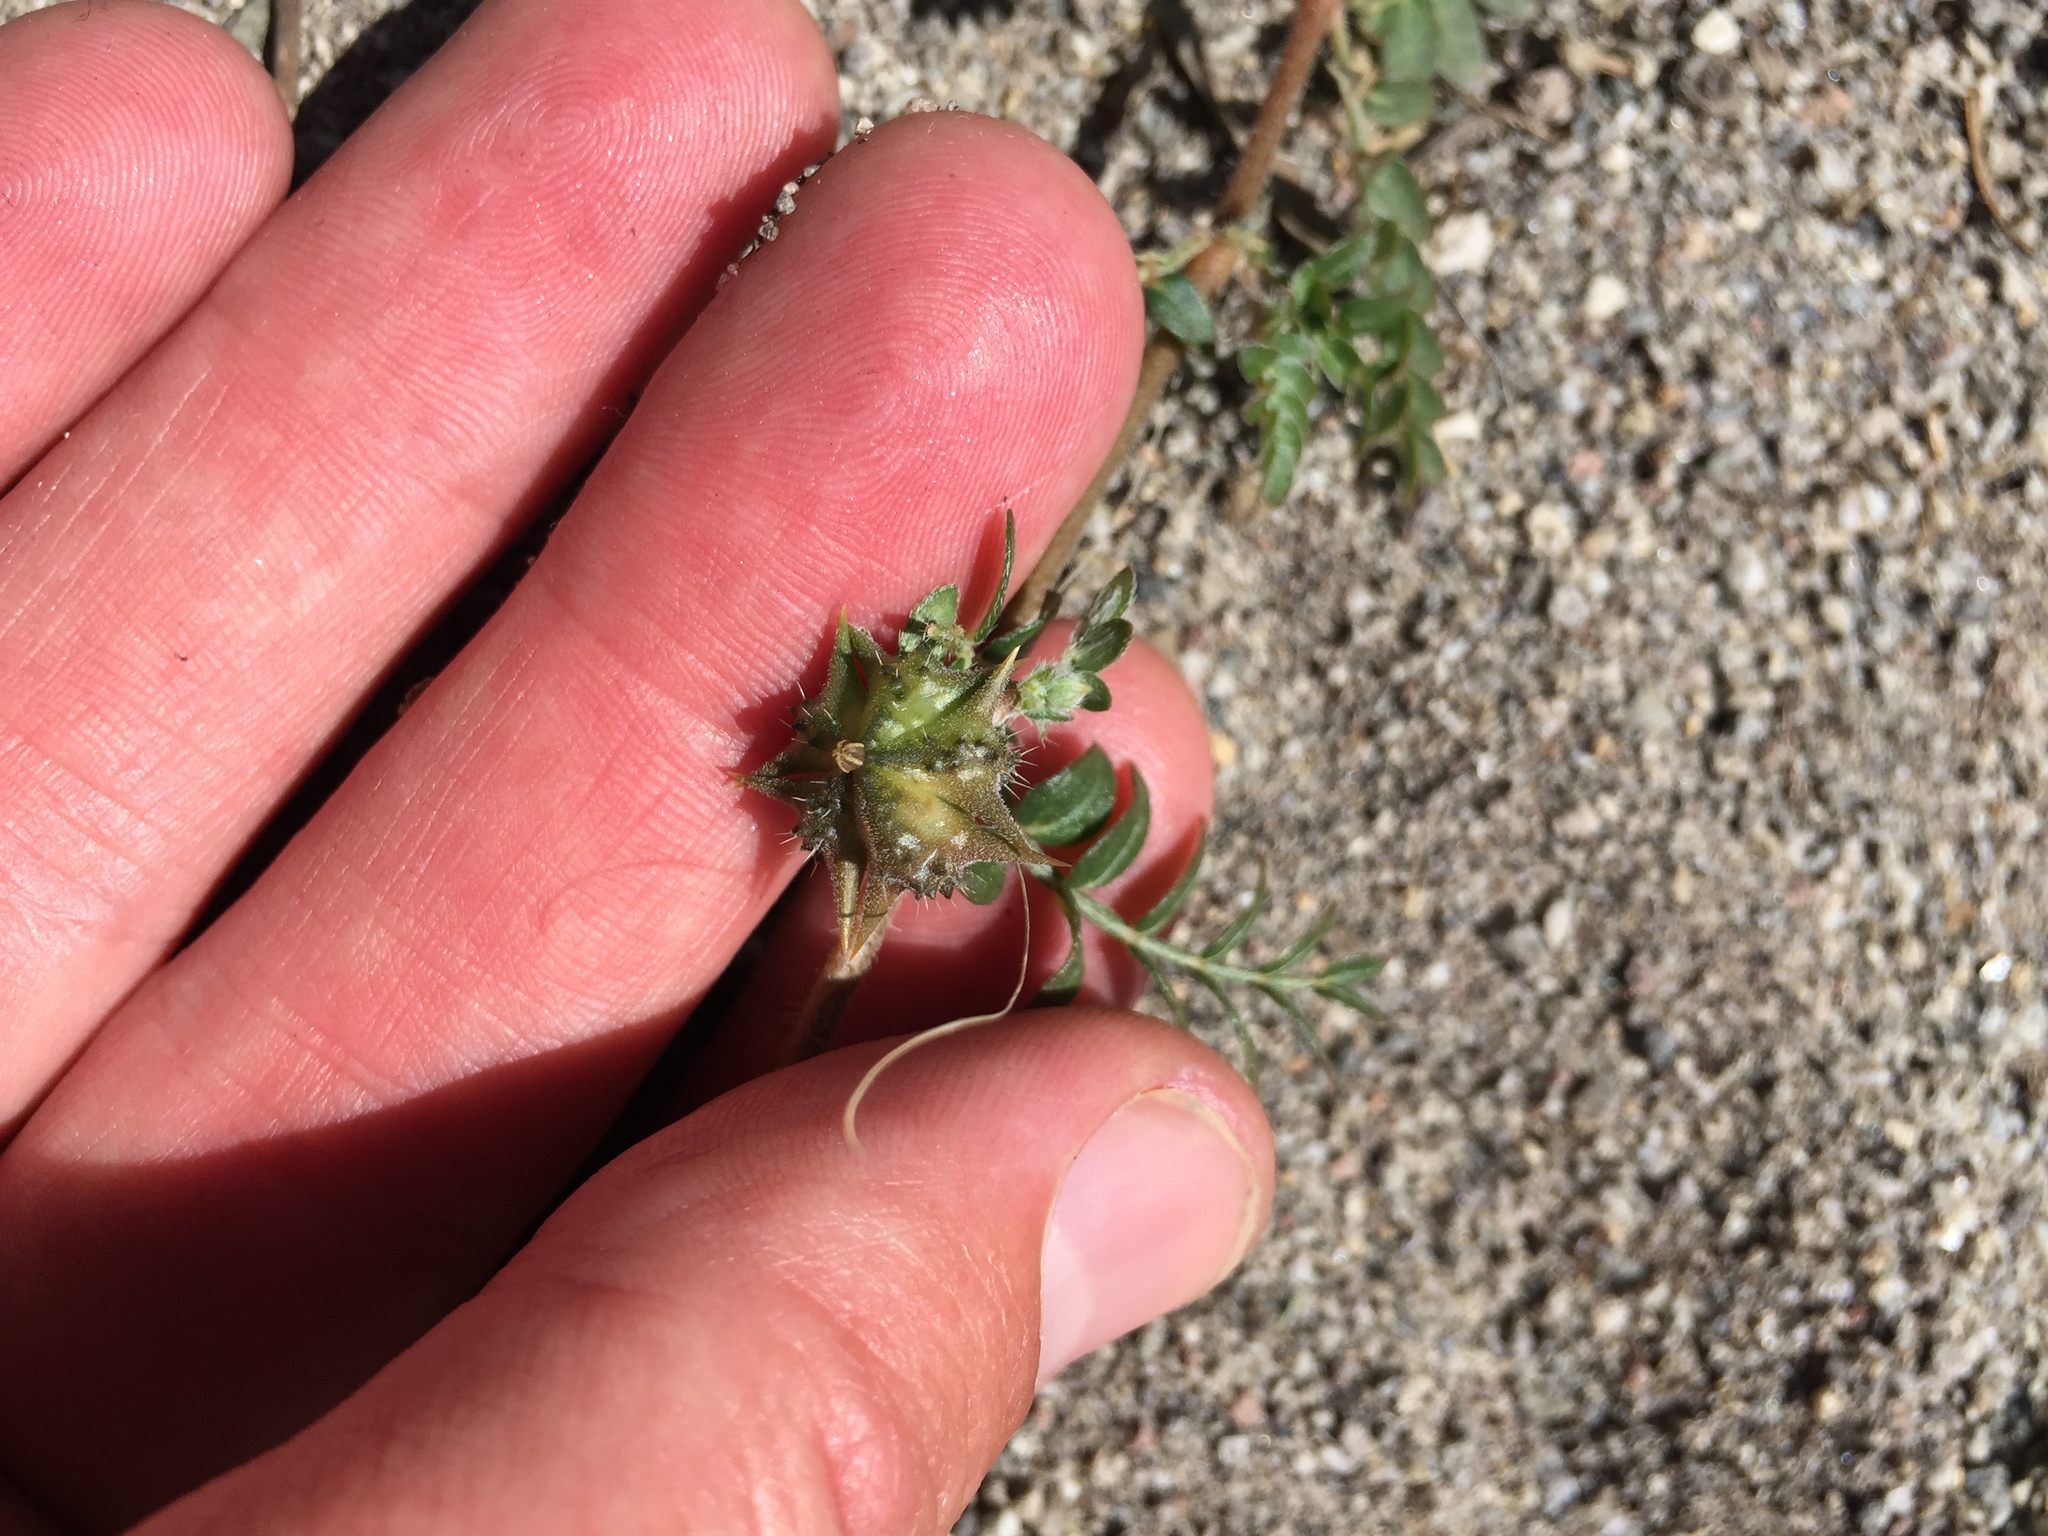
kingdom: Plantae
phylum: Tracheophyta
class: Magnoliopsida
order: Zygophyllales
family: Zygophyllaceae
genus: Tribulus
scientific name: Tribulus terrestris
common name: Puncturevine
